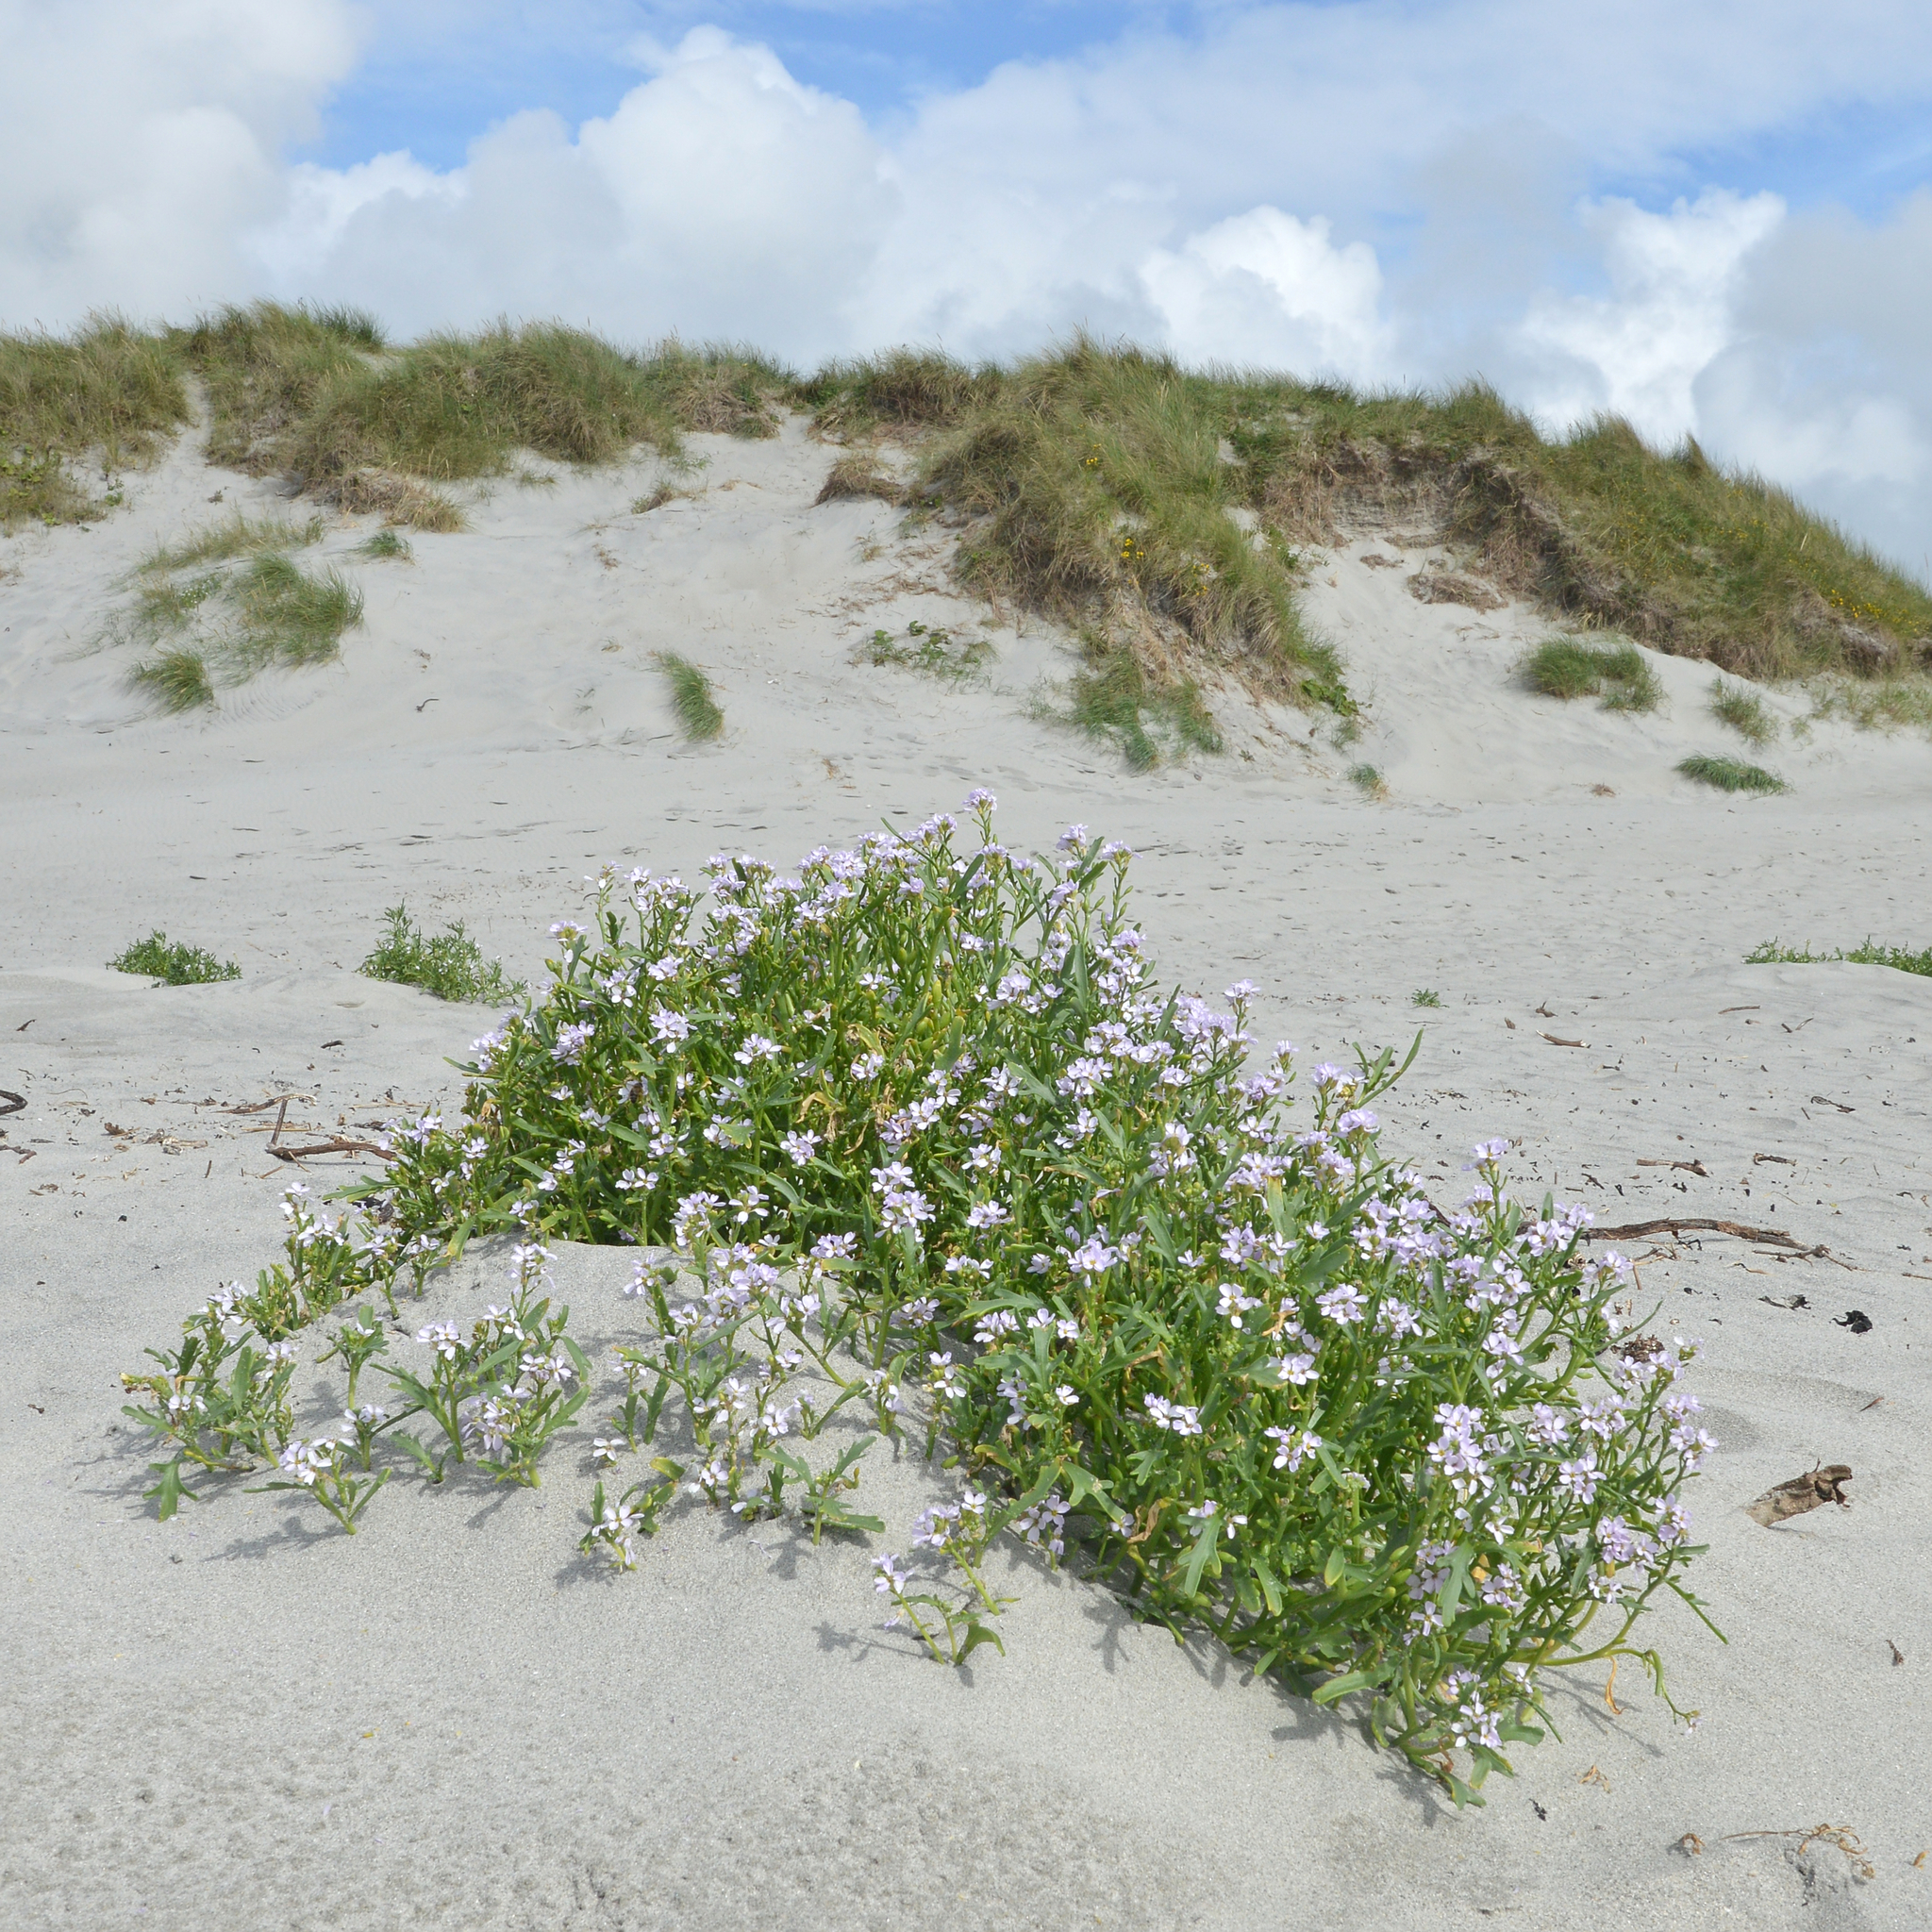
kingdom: Plantae
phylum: Tracheophyta
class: Magnoliopsida
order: Brassicales
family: Brassicaceae
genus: Cakile
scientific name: Cakile maritima
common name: Sea rocket
